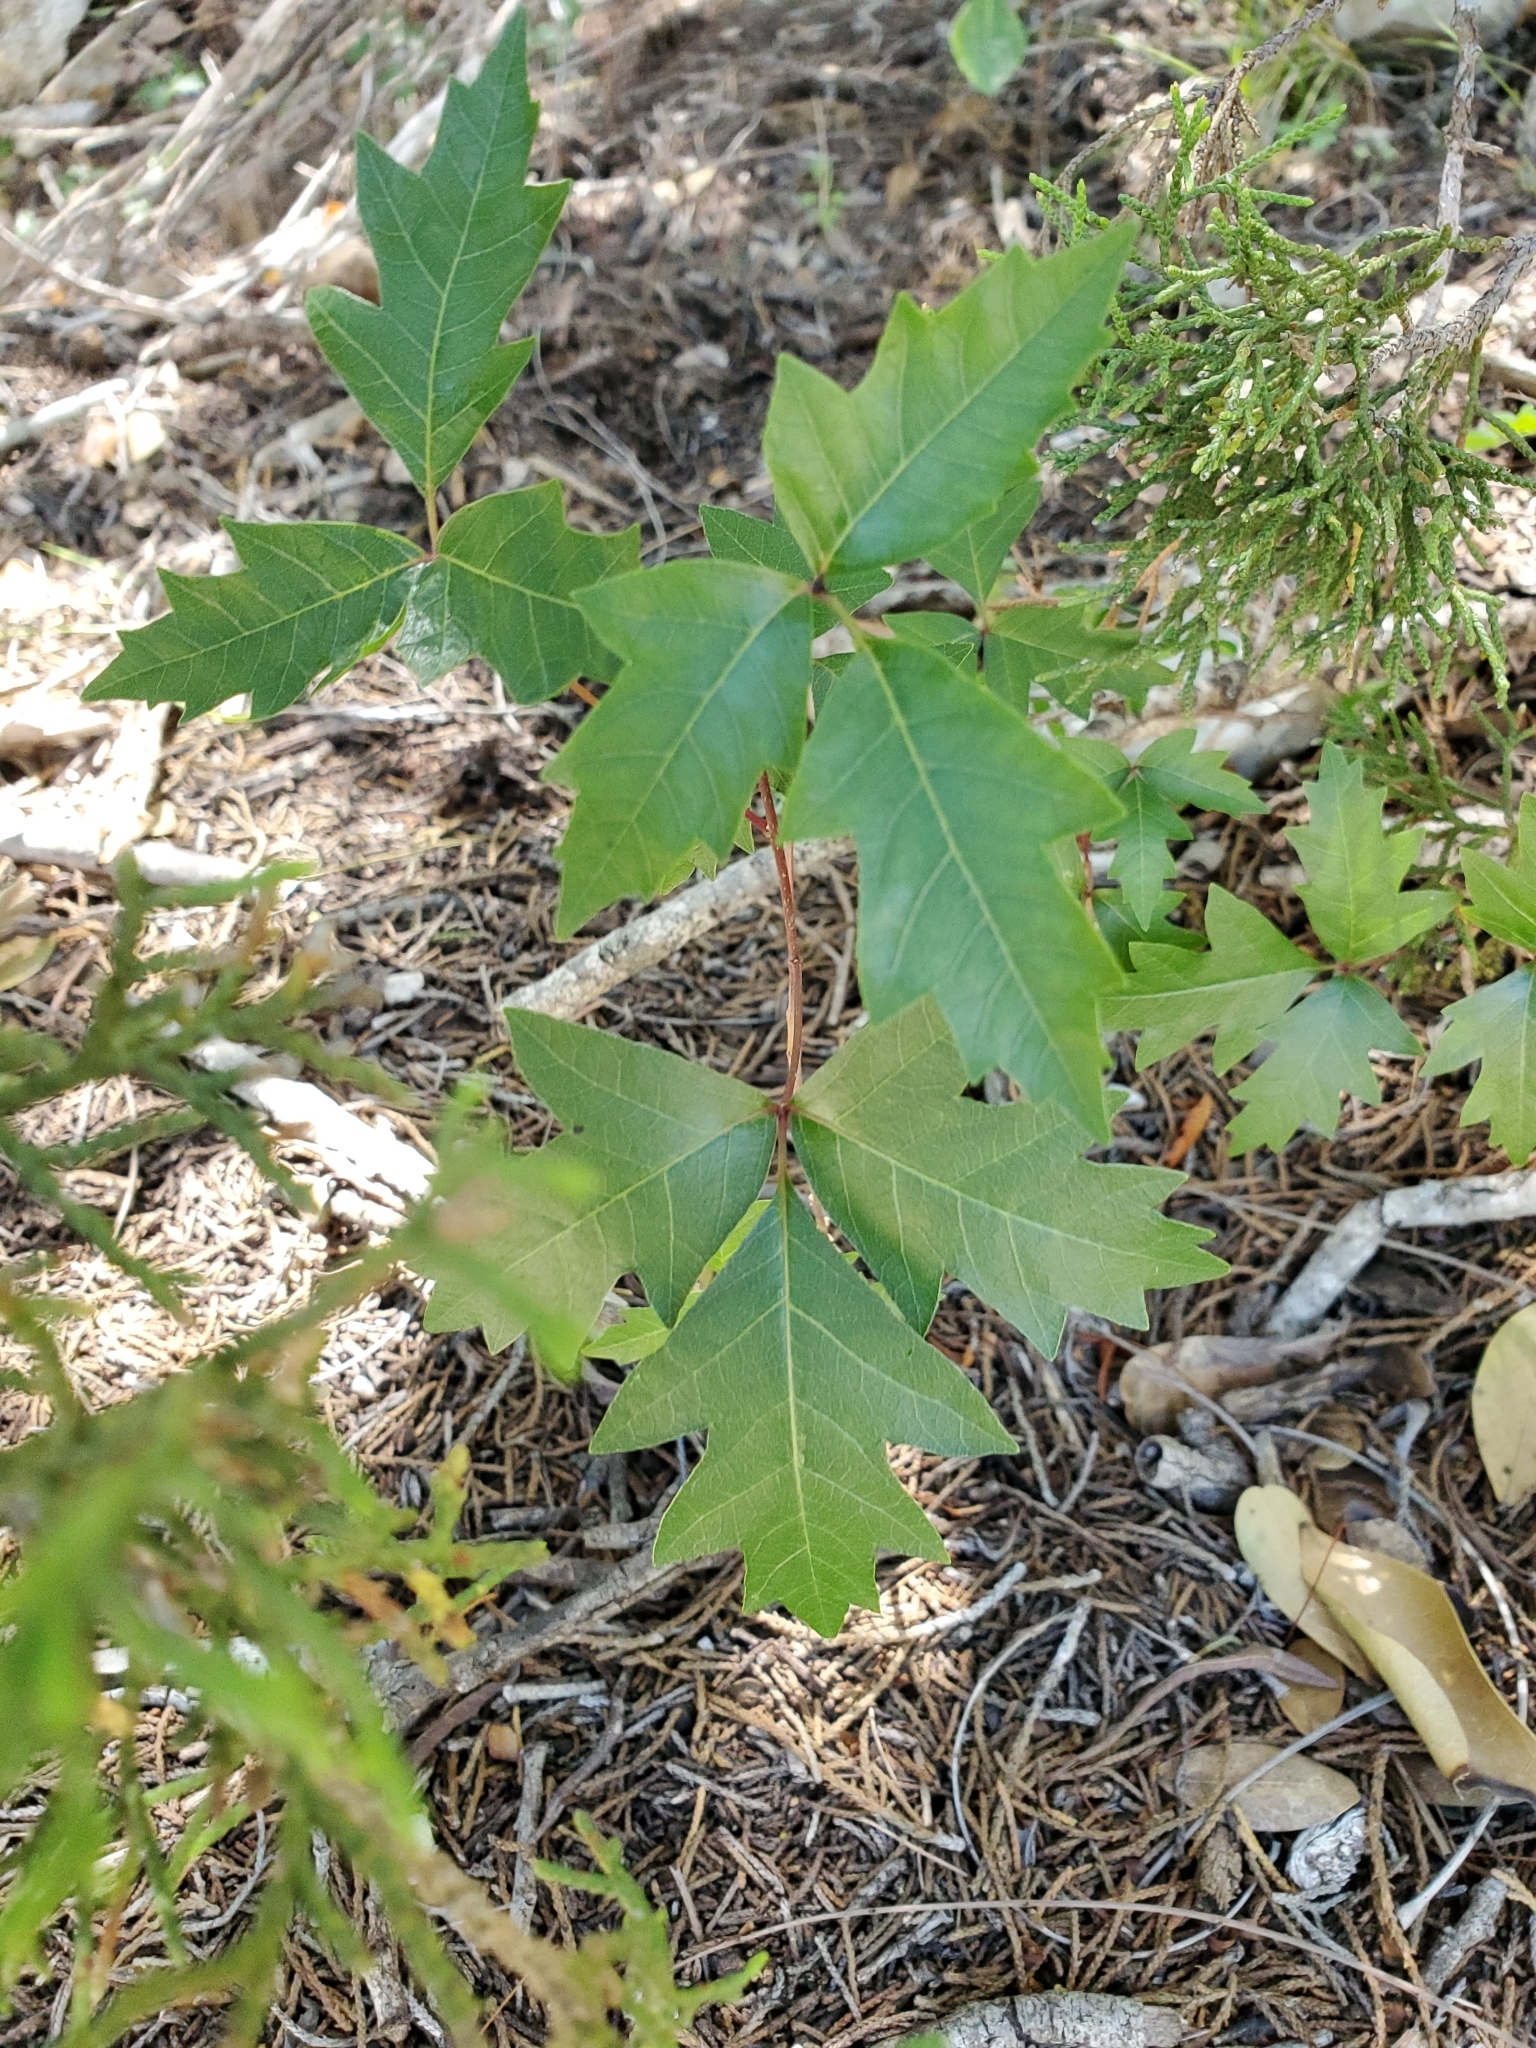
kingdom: Plantae
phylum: Tracheophyta
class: Magnoliopsida
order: Sapindales
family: Anacardiaceae
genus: Toxicodendron
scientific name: Toxicodendron radicans
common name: Poison ivy
